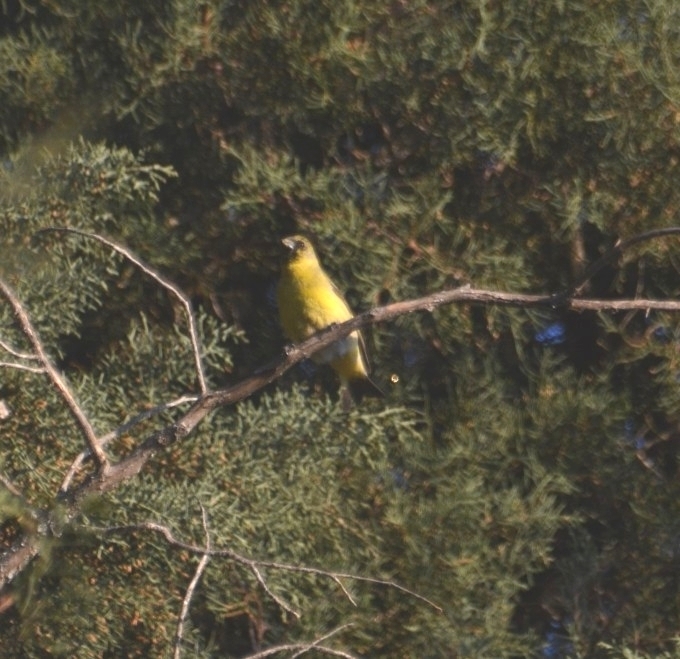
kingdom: Animalia
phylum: Chordata
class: Aves
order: Passeriformes
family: Fringillidae
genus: Spinus
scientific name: Spinus magellanicus
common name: Hooded siskin
